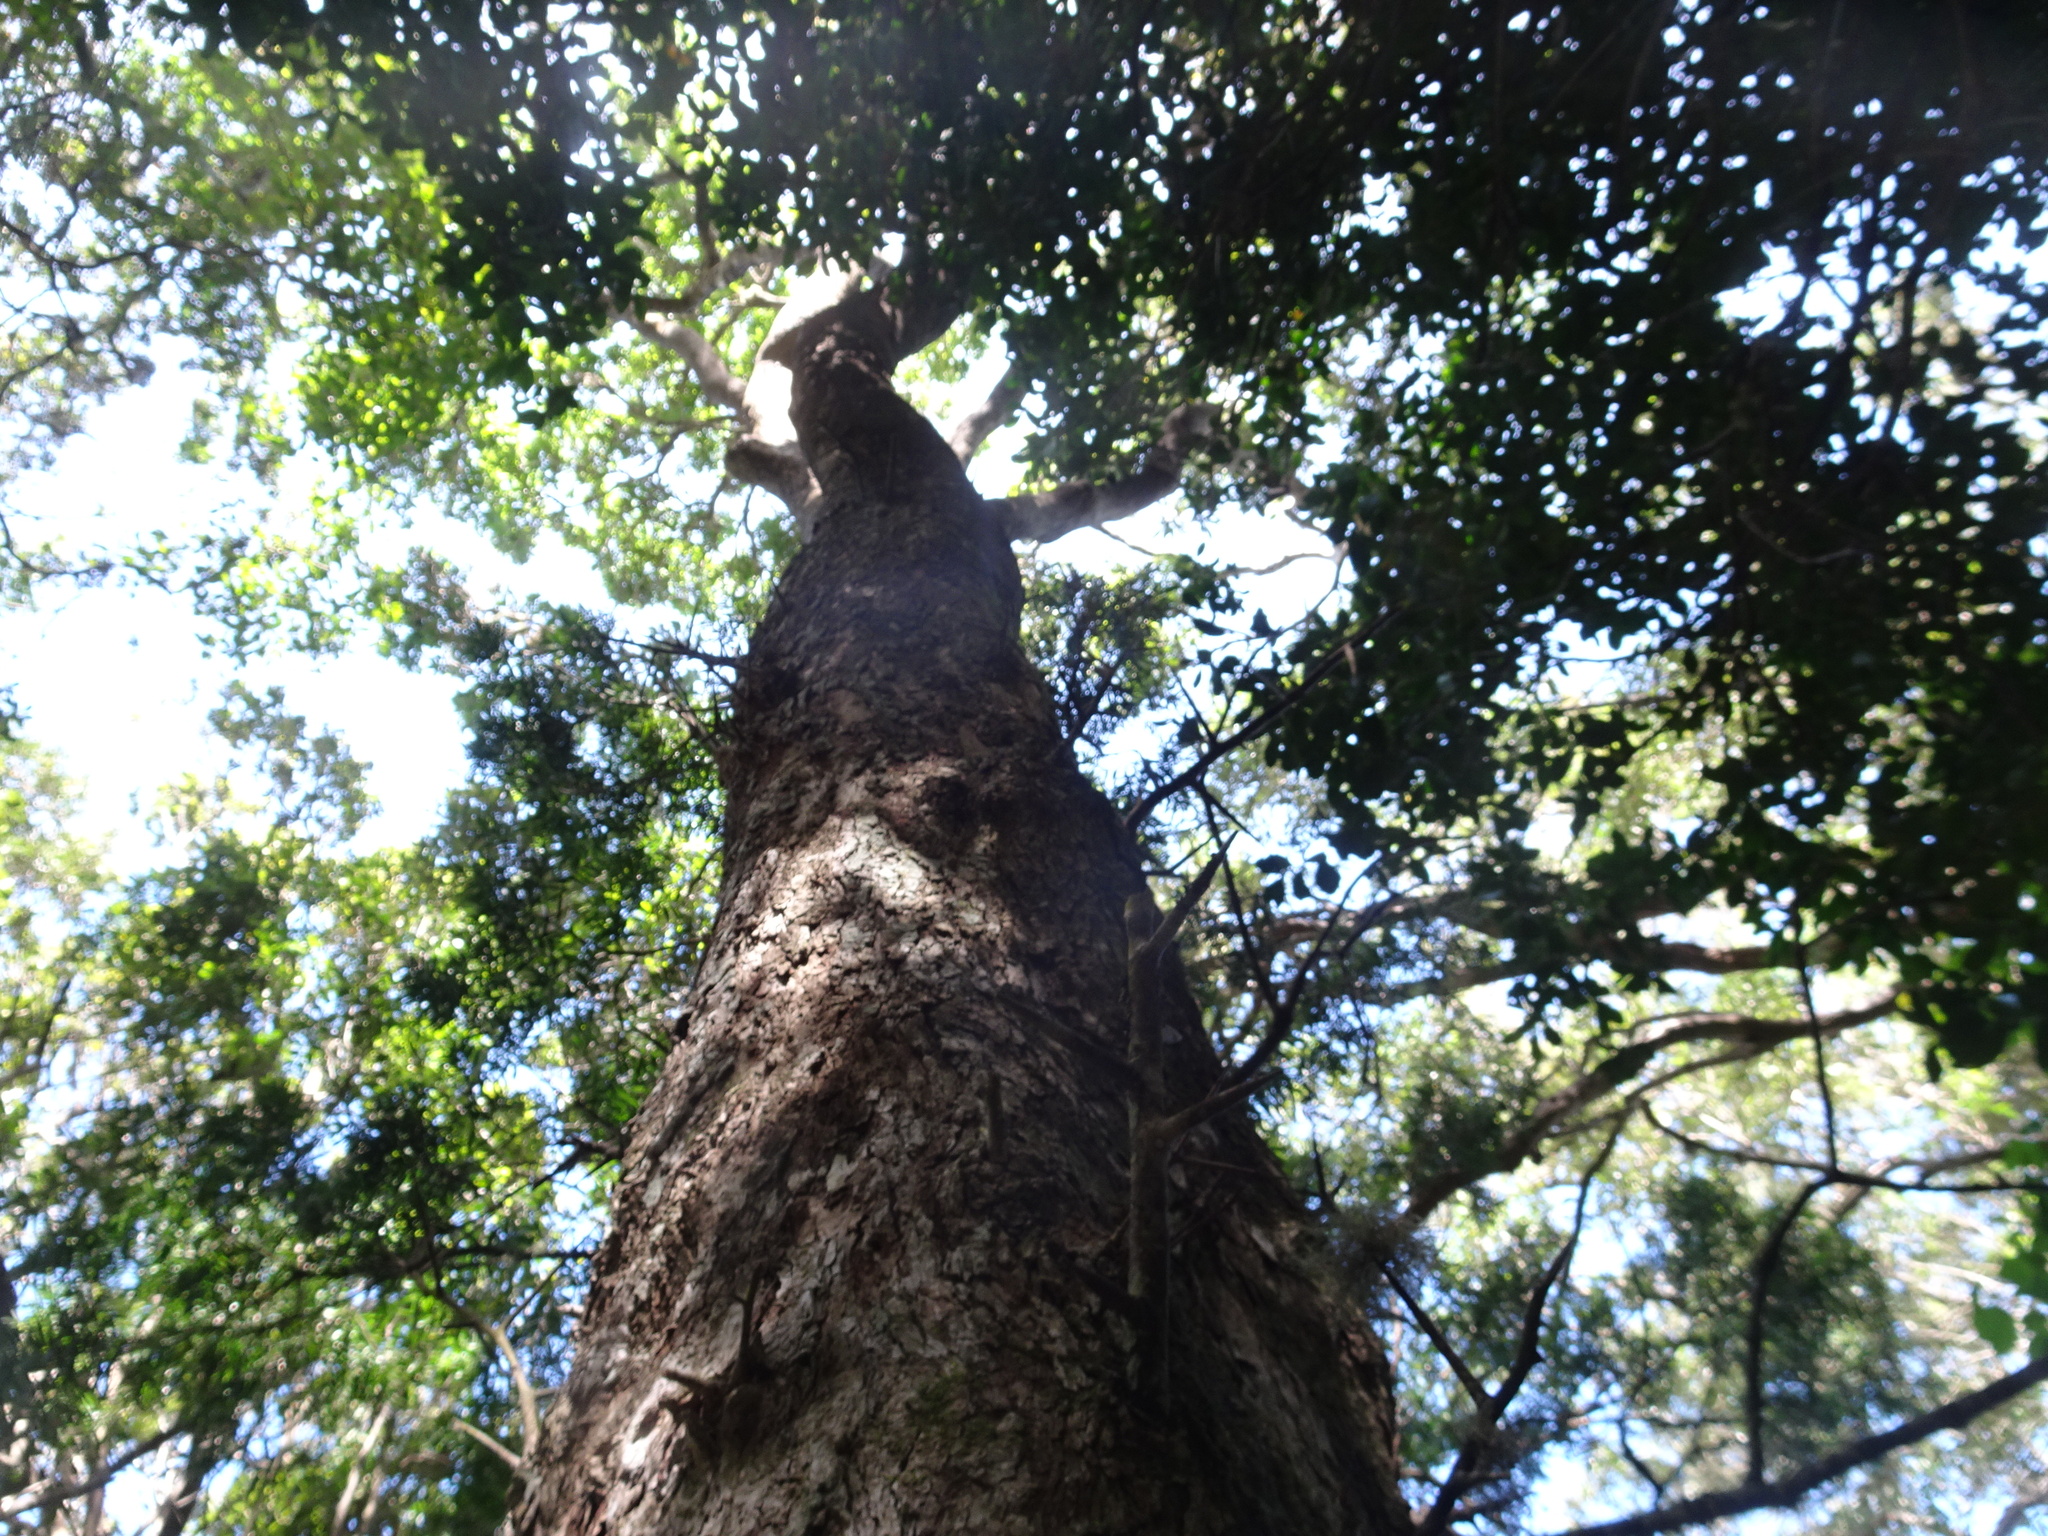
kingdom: Plantae
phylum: Tracheophyta
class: Magnoliopsida
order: Malpighiales
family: Salicaceae
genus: Scolopia
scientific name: Scolopia zeyheri
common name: Thorn pear
